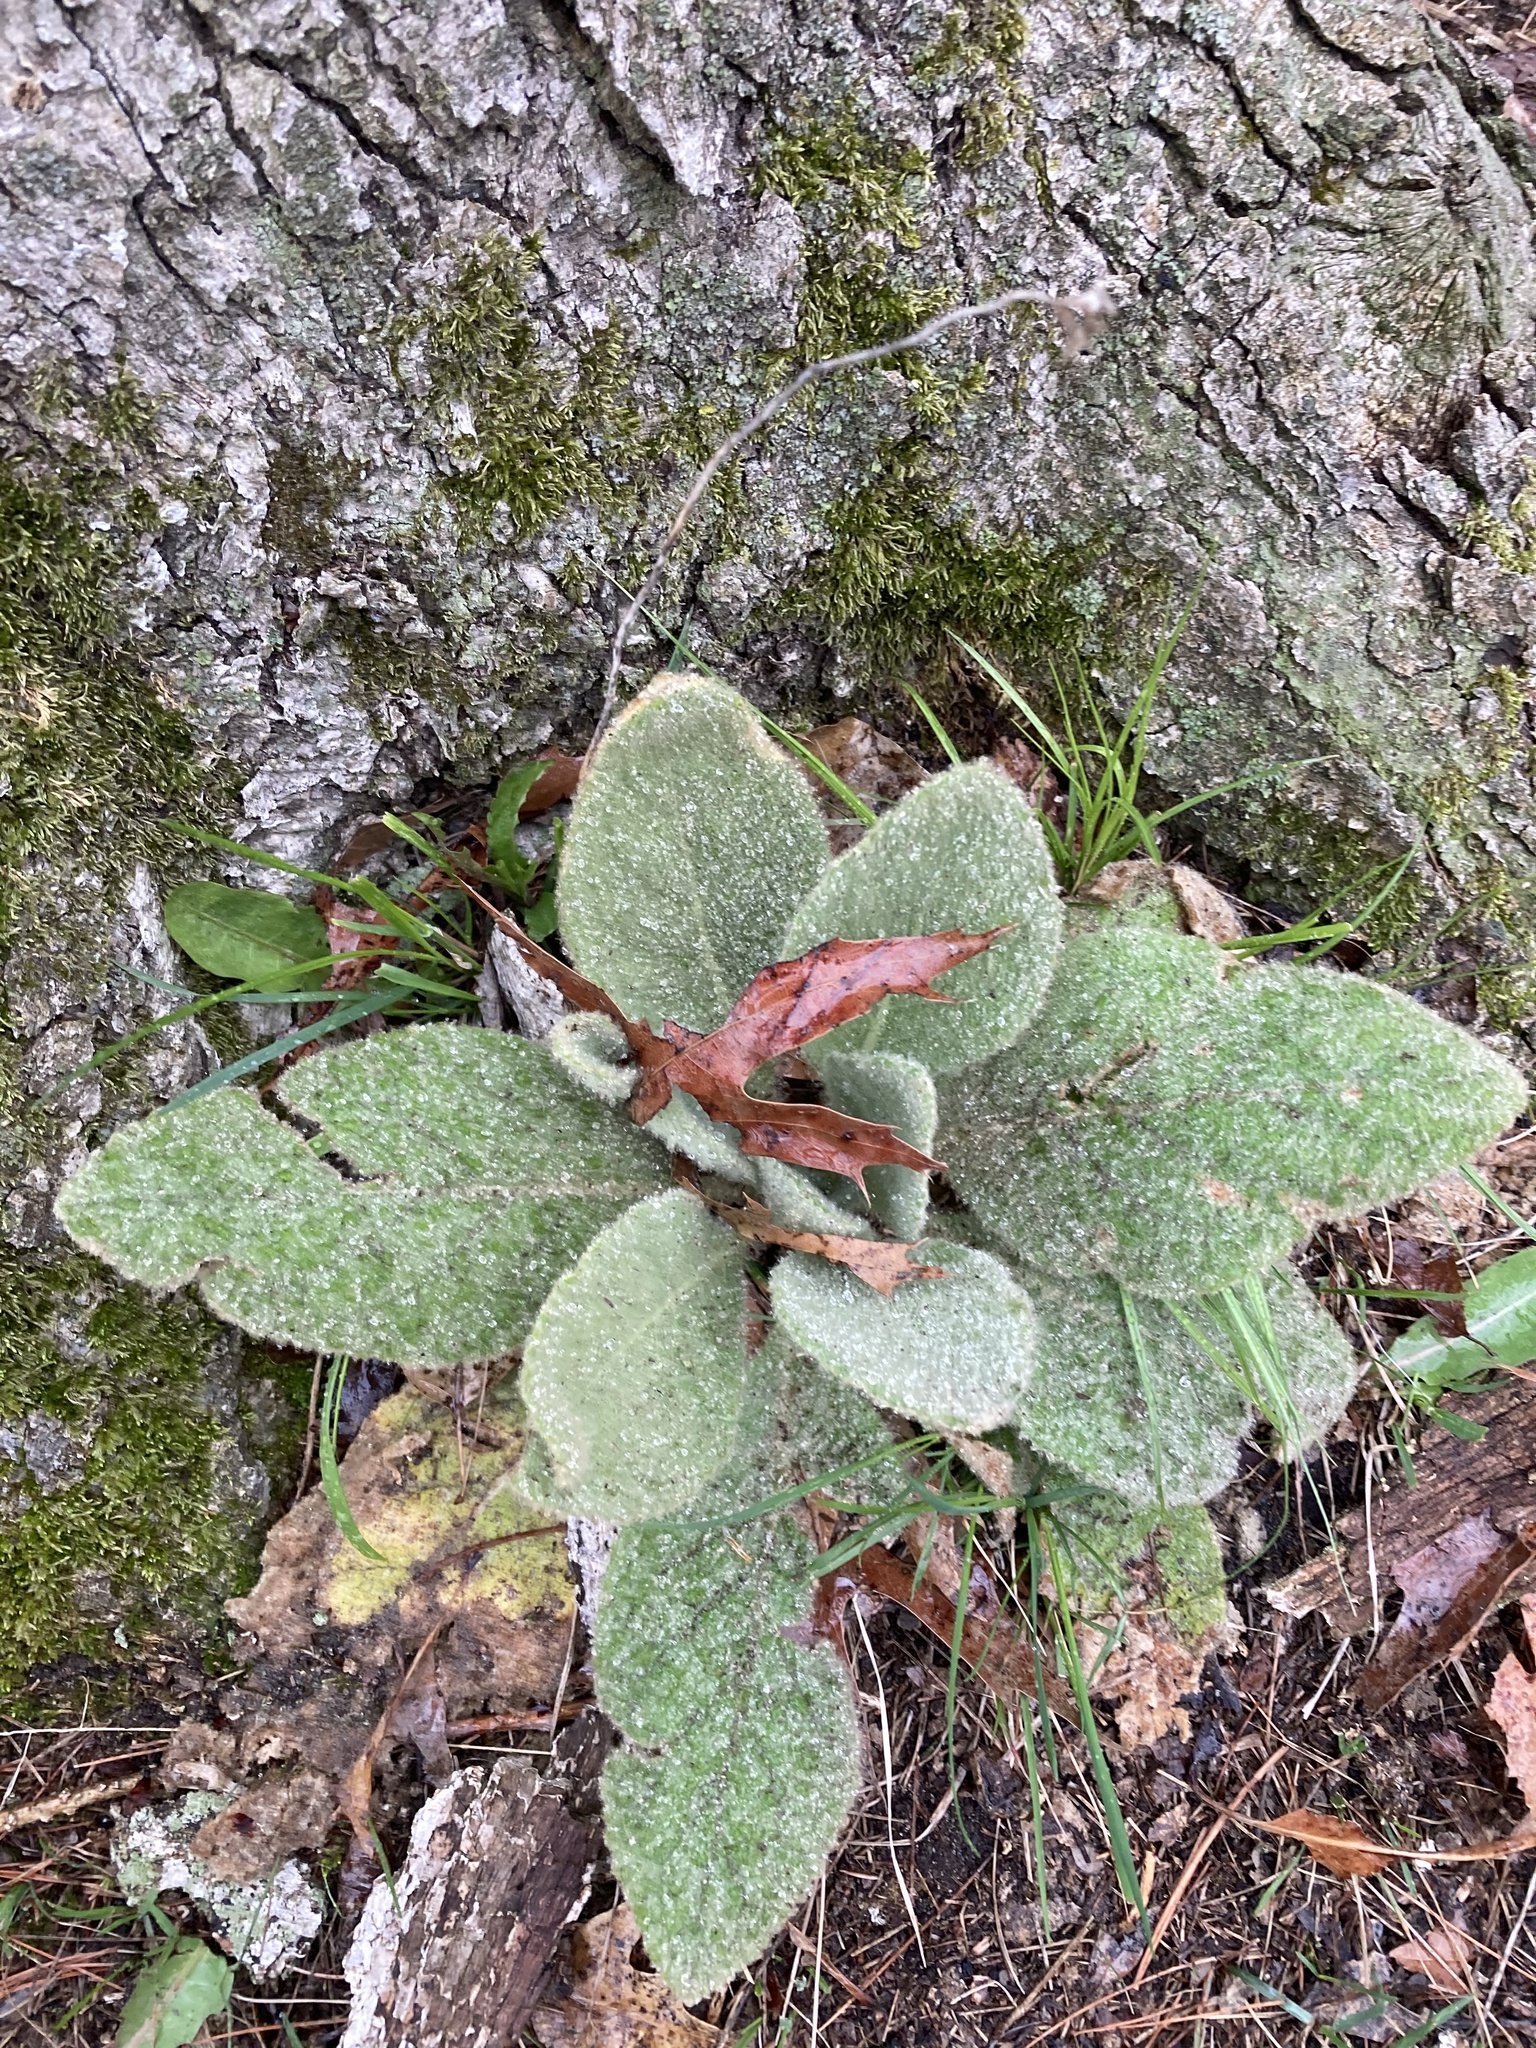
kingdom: Plantae
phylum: Tracheophyta
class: Magnoliopsida
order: Lamiales
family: Scrophulariaceae
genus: Verbascum
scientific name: Verbascum thapsus
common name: Common mullein
